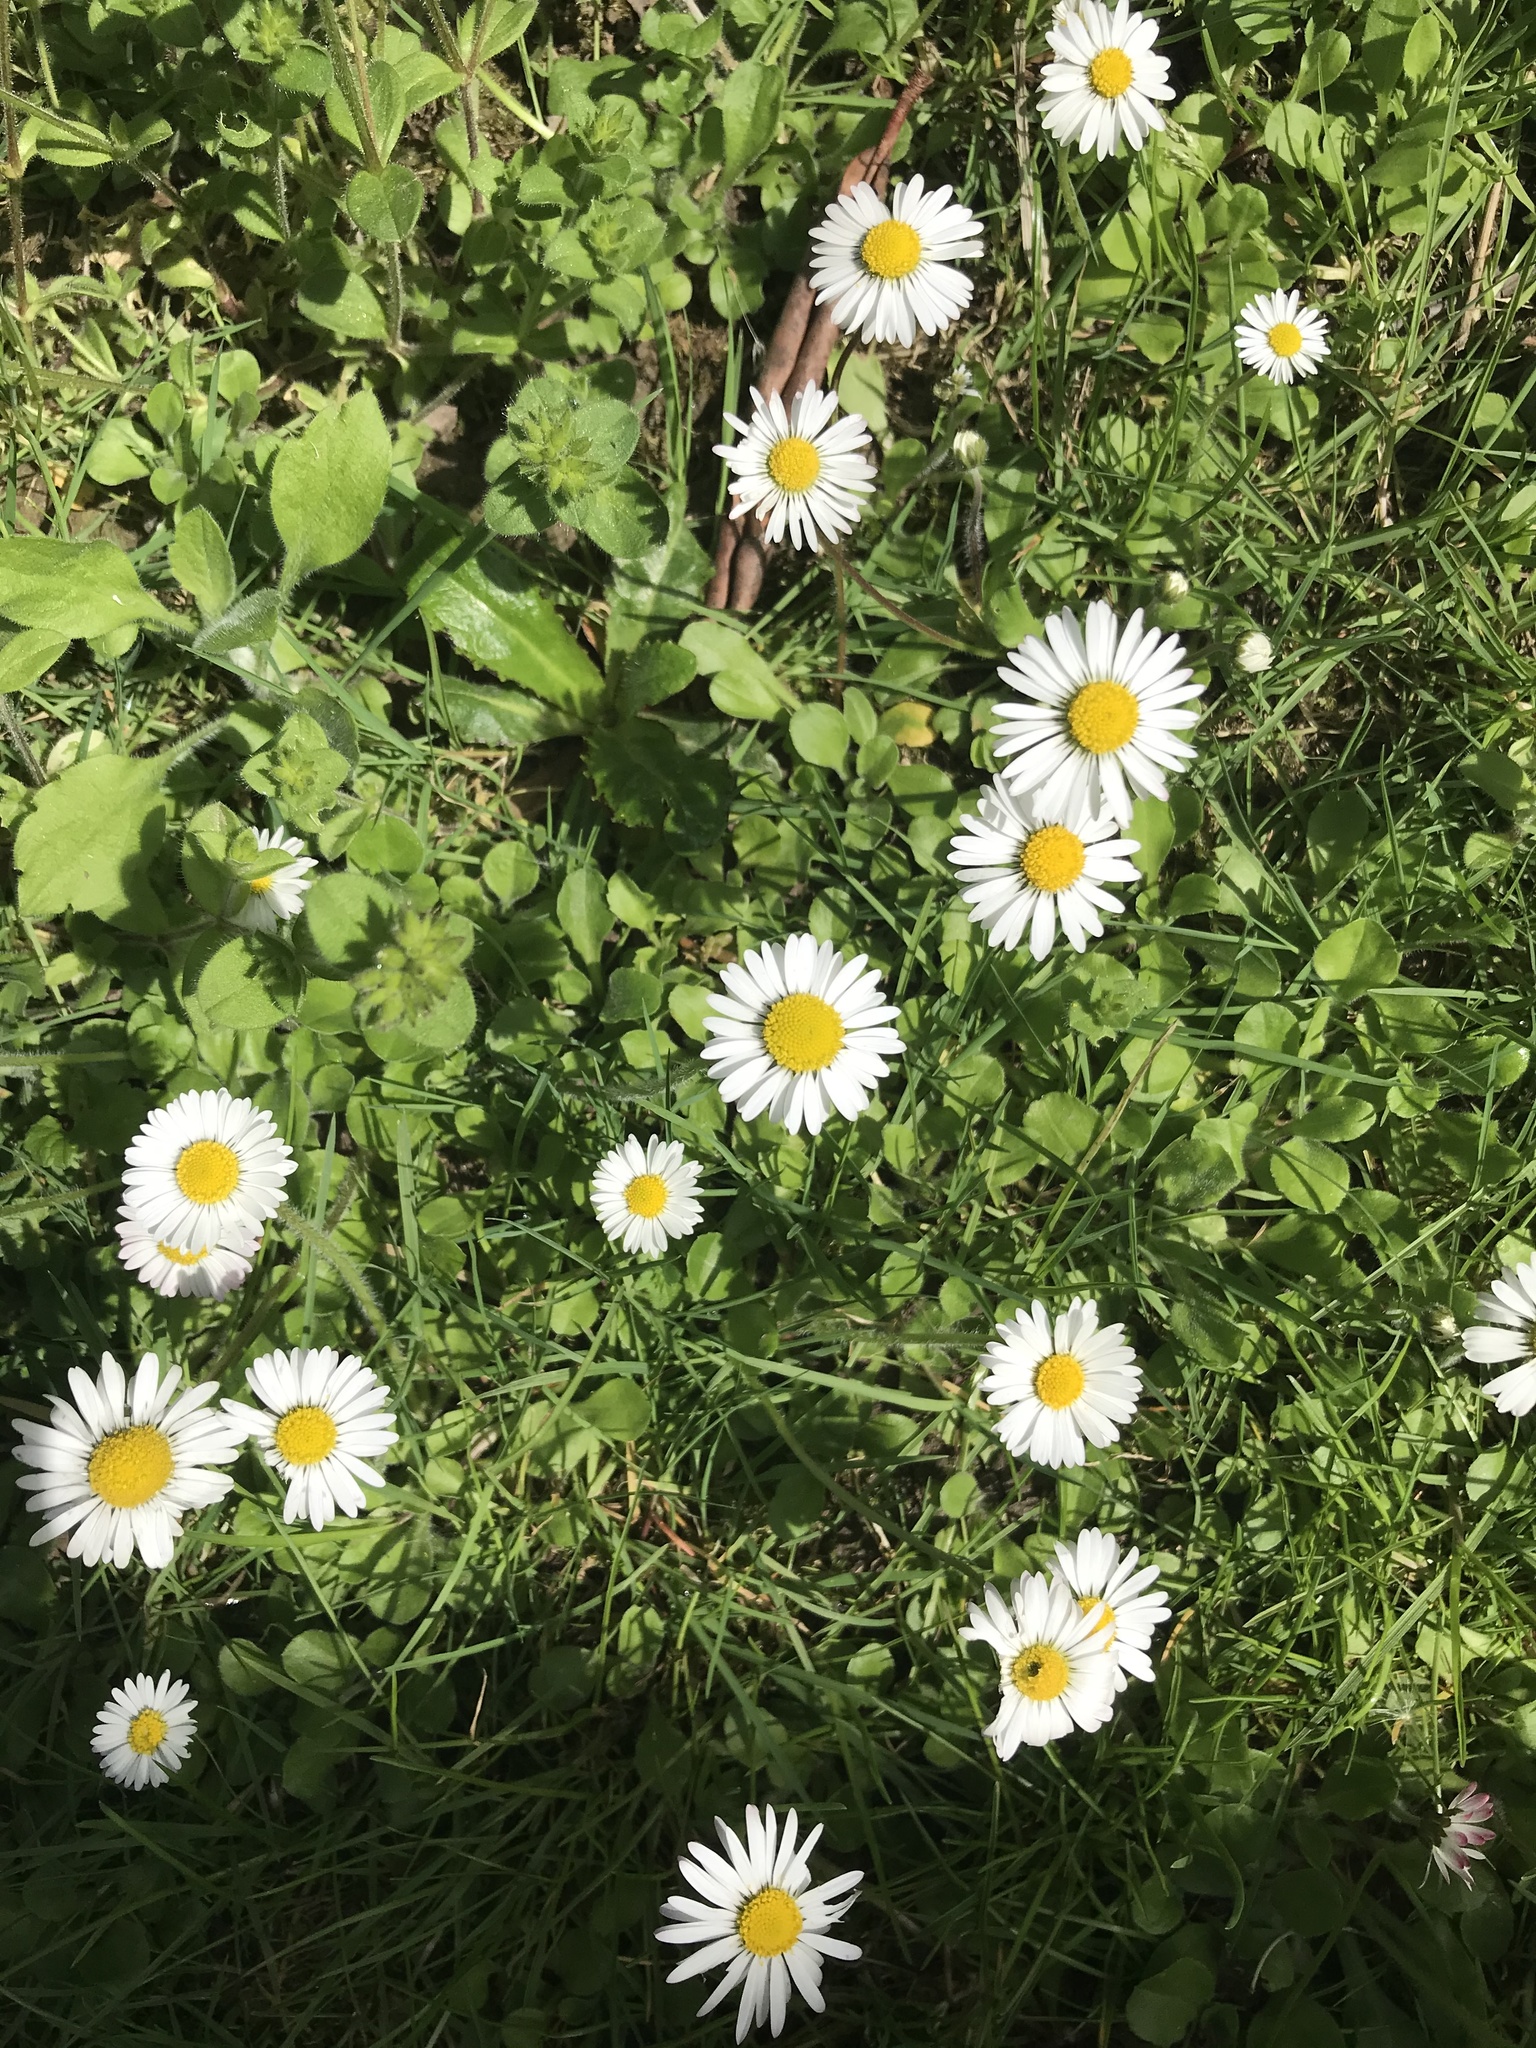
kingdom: Plantae
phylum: Tracheophyta
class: Magnoliopsida
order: Asterales
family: Asteraceae
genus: Bellis
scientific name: Bellis perennis
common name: Lawndaisy
